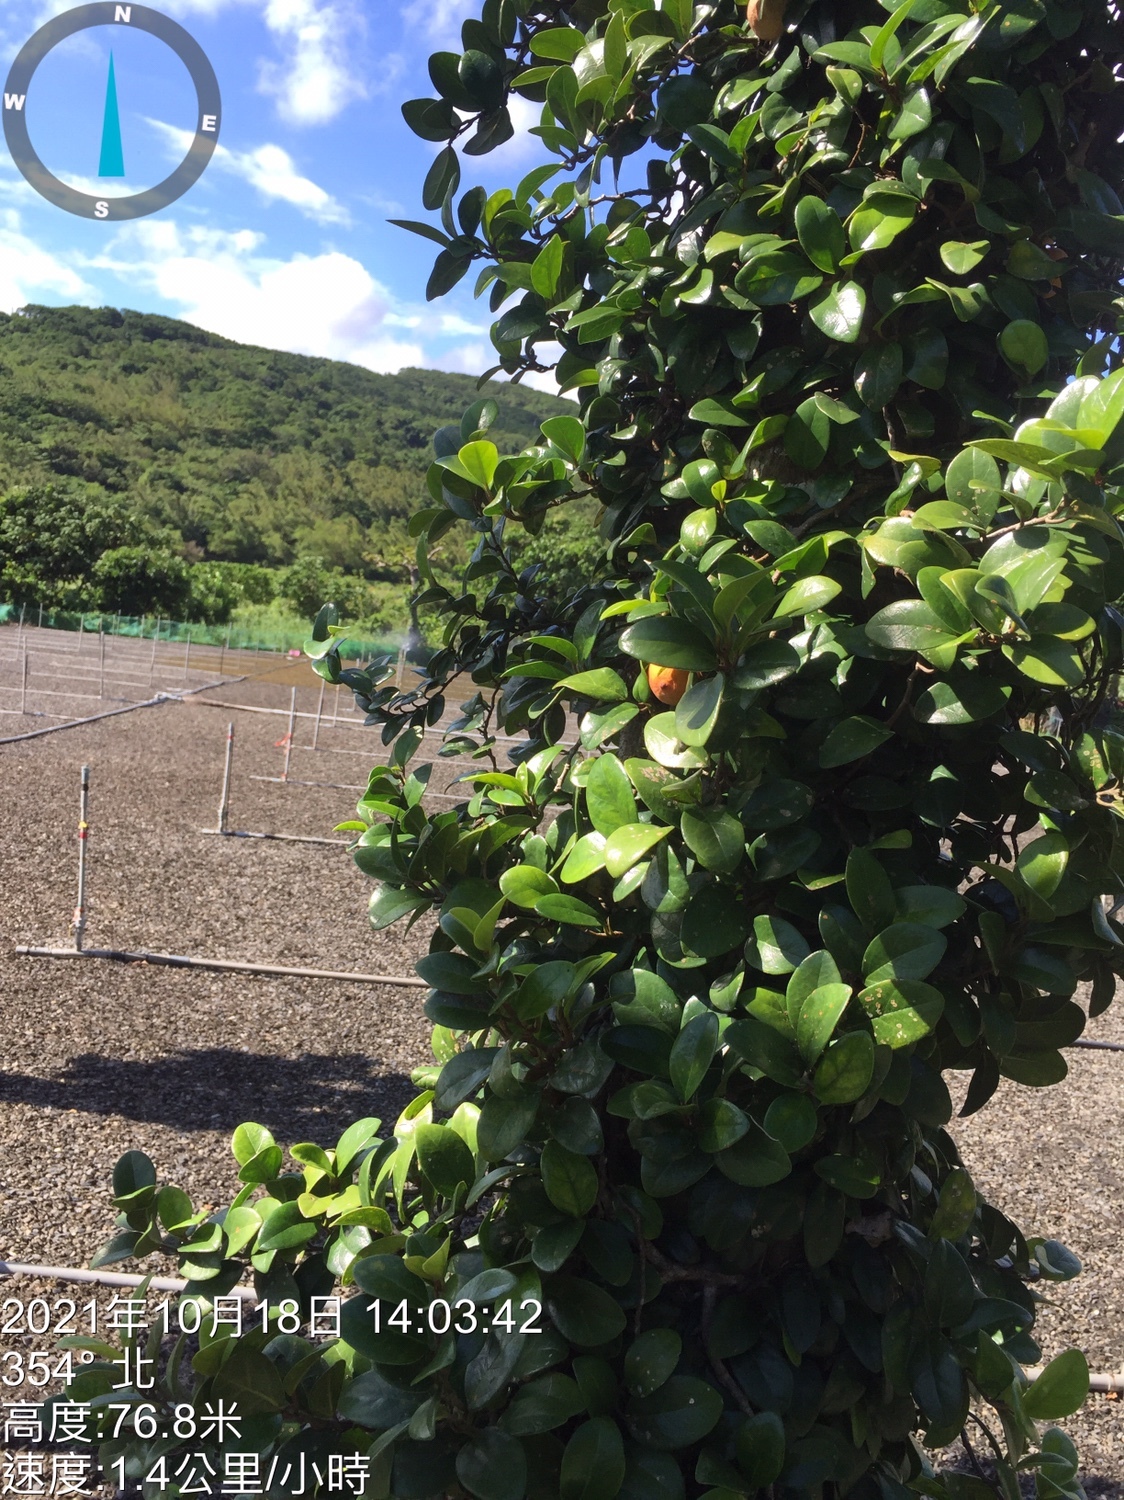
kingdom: Plantae
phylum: Tracheophyta
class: Magnoliopsida
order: Rosales
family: Moraceae
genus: Ficus
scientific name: Ficus punctata
